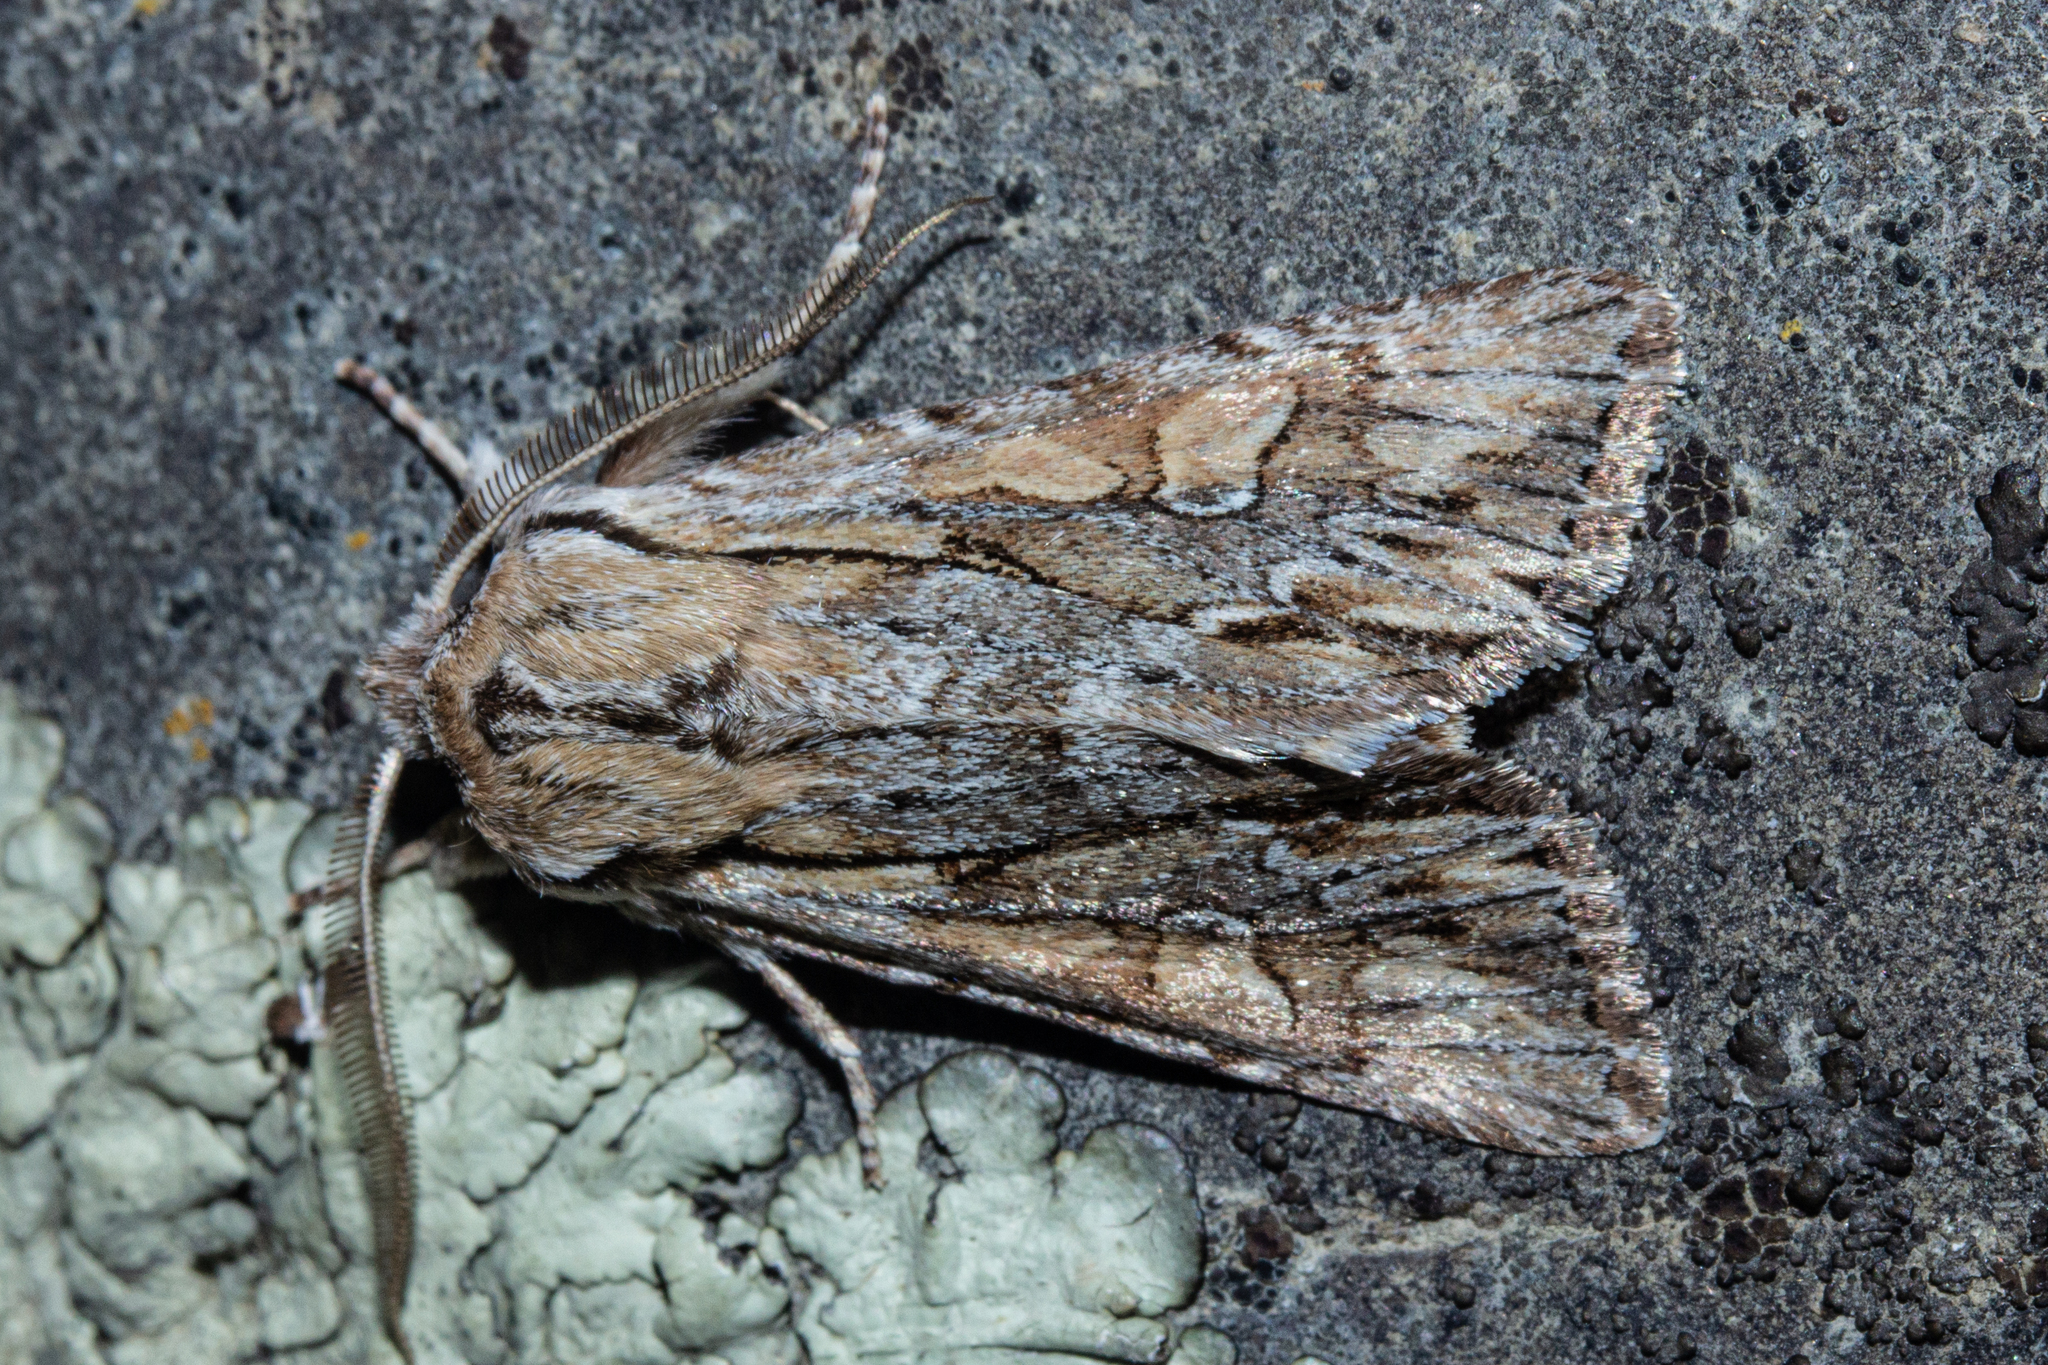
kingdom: Animalia
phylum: Arthropoda
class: Insecta
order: Lepidoptera
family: Noctuidae
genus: Ichneutica
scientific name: Ichneutica
